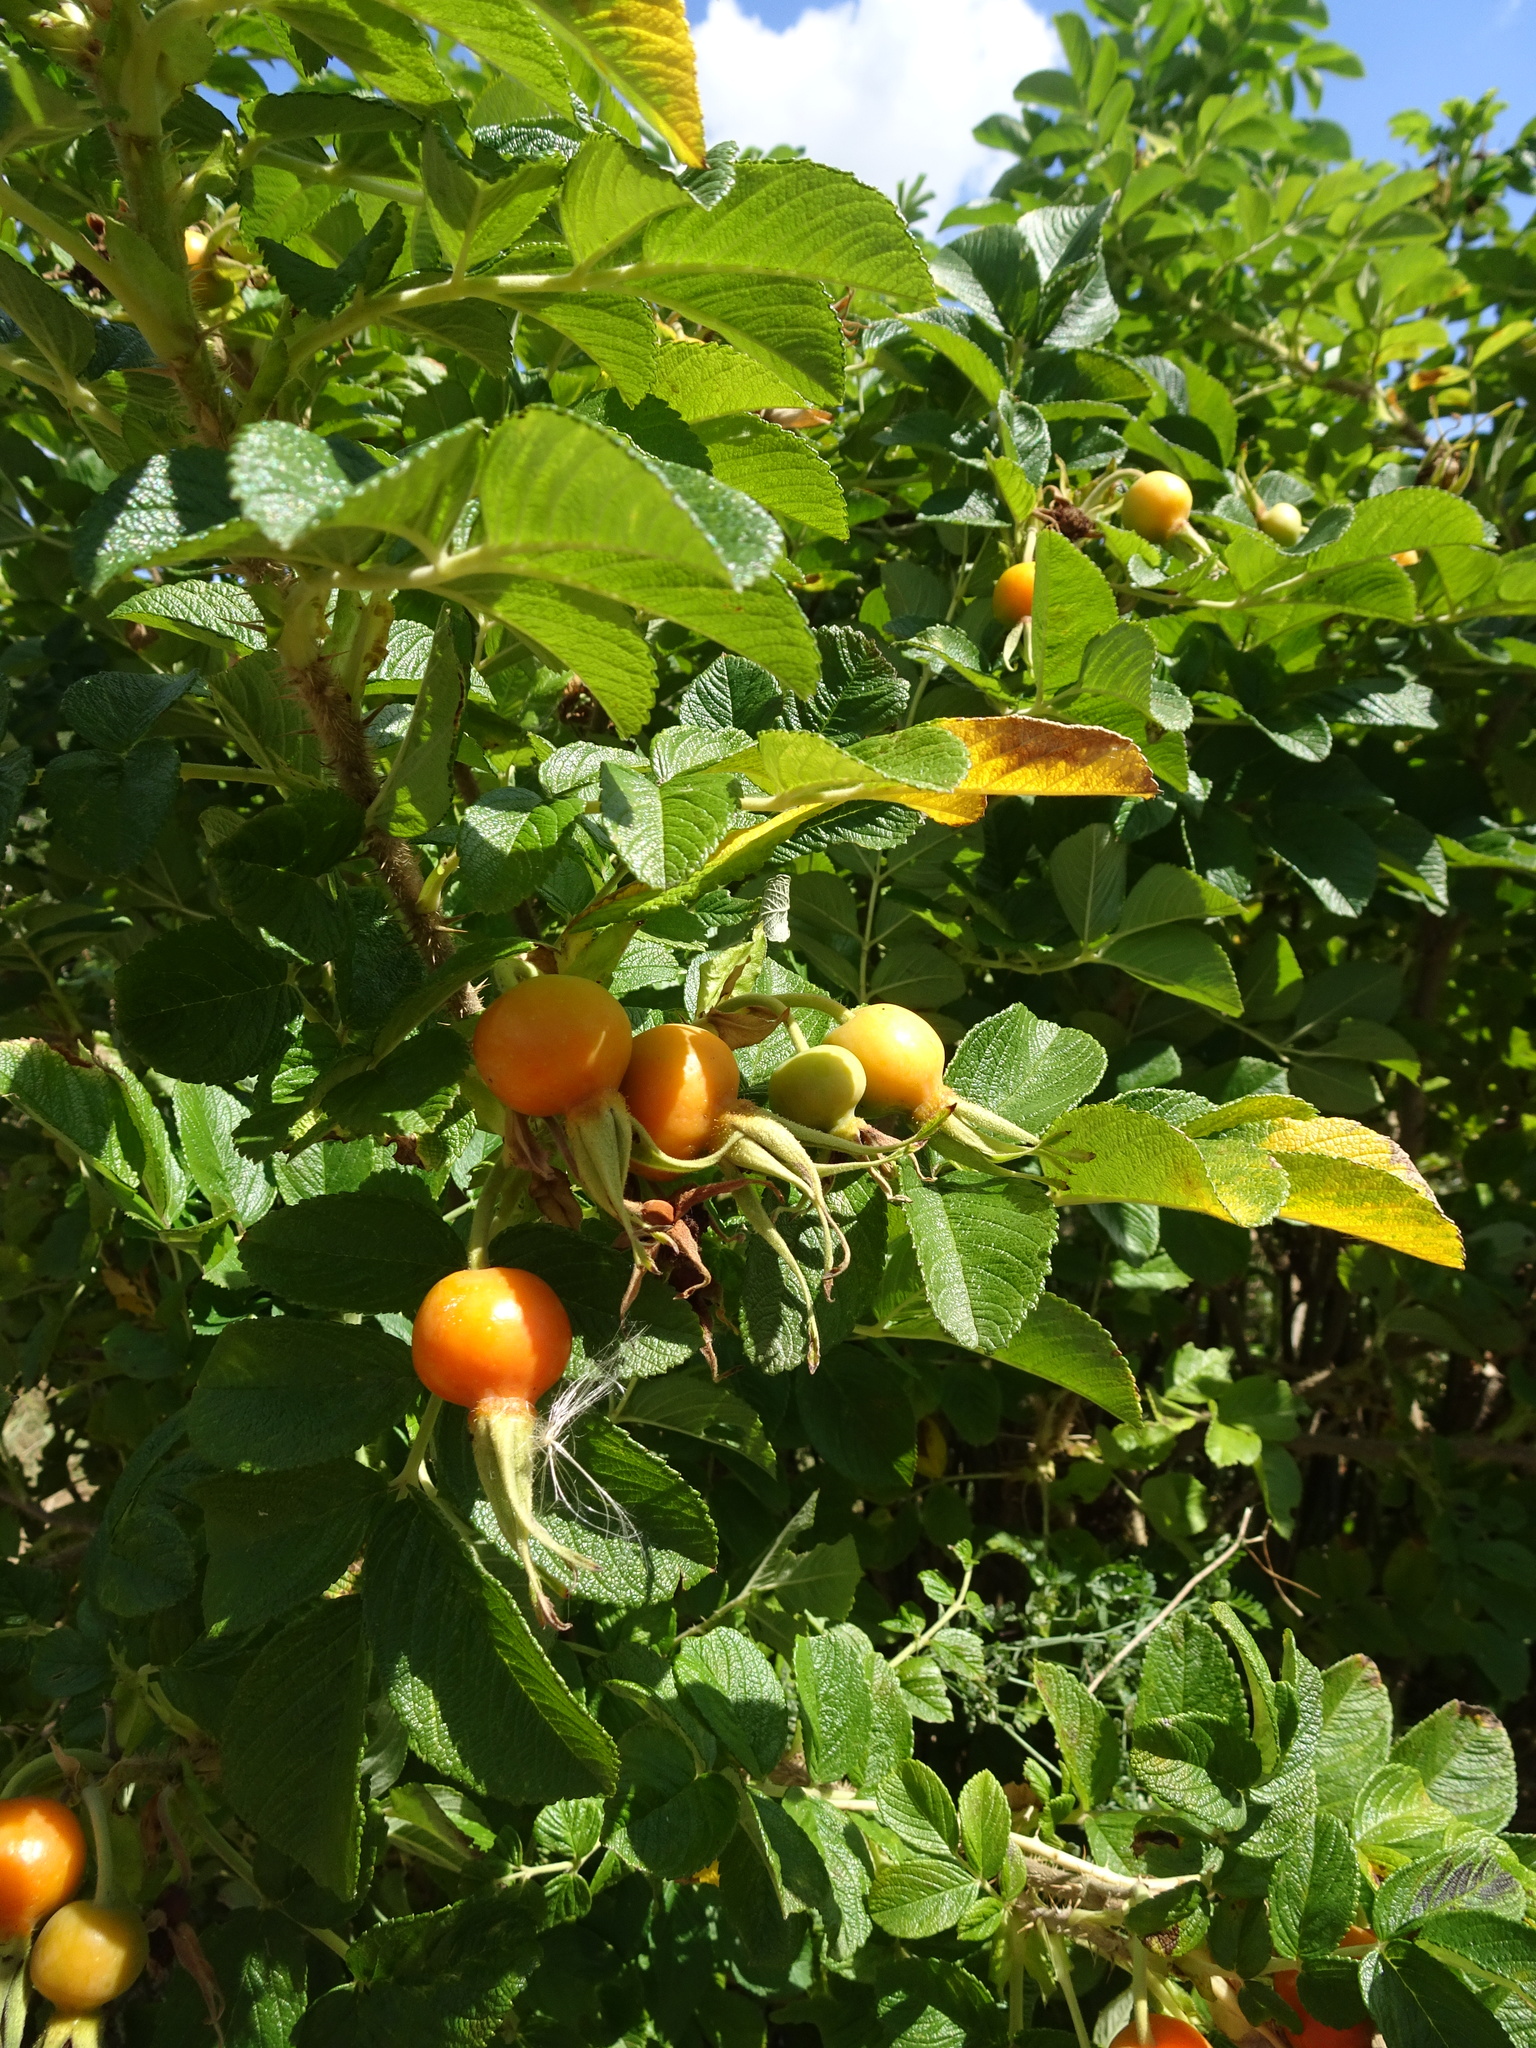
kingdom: Plantae
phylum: Tracheophyta
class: Magnoliopsida
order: Rosales
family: Rosaceae
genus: Rosa
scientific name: Rosa rugosa
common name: Japanese rose
